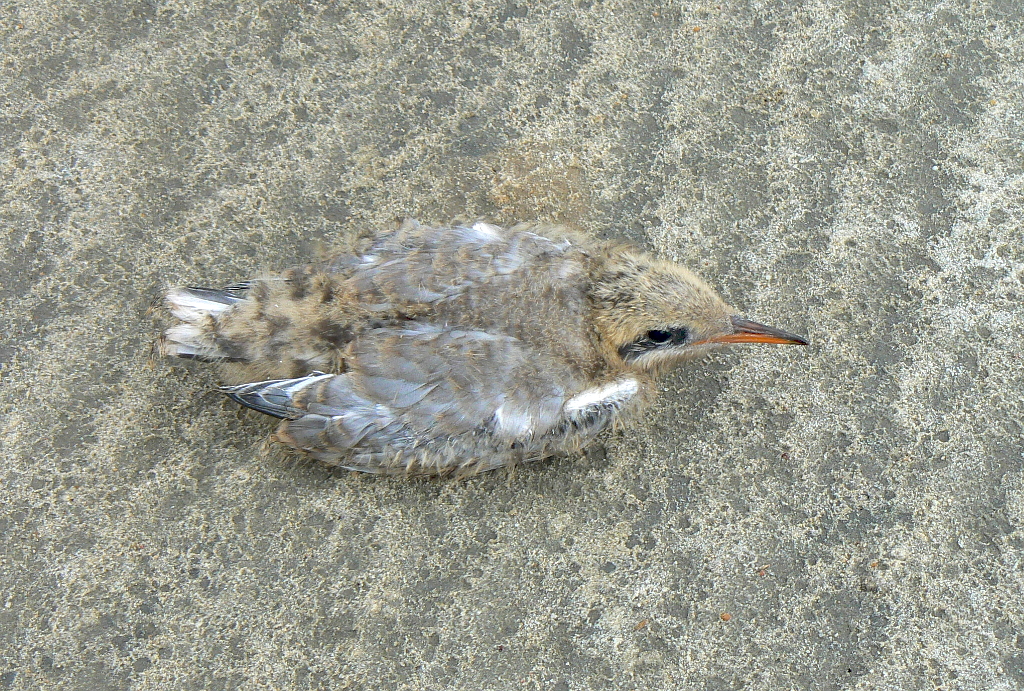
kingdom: Animalia
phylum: Chordata
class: Aves
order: Charadriiformes
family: Laridae
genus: Sterna
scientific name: Sterna hirundo
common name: Common tern
